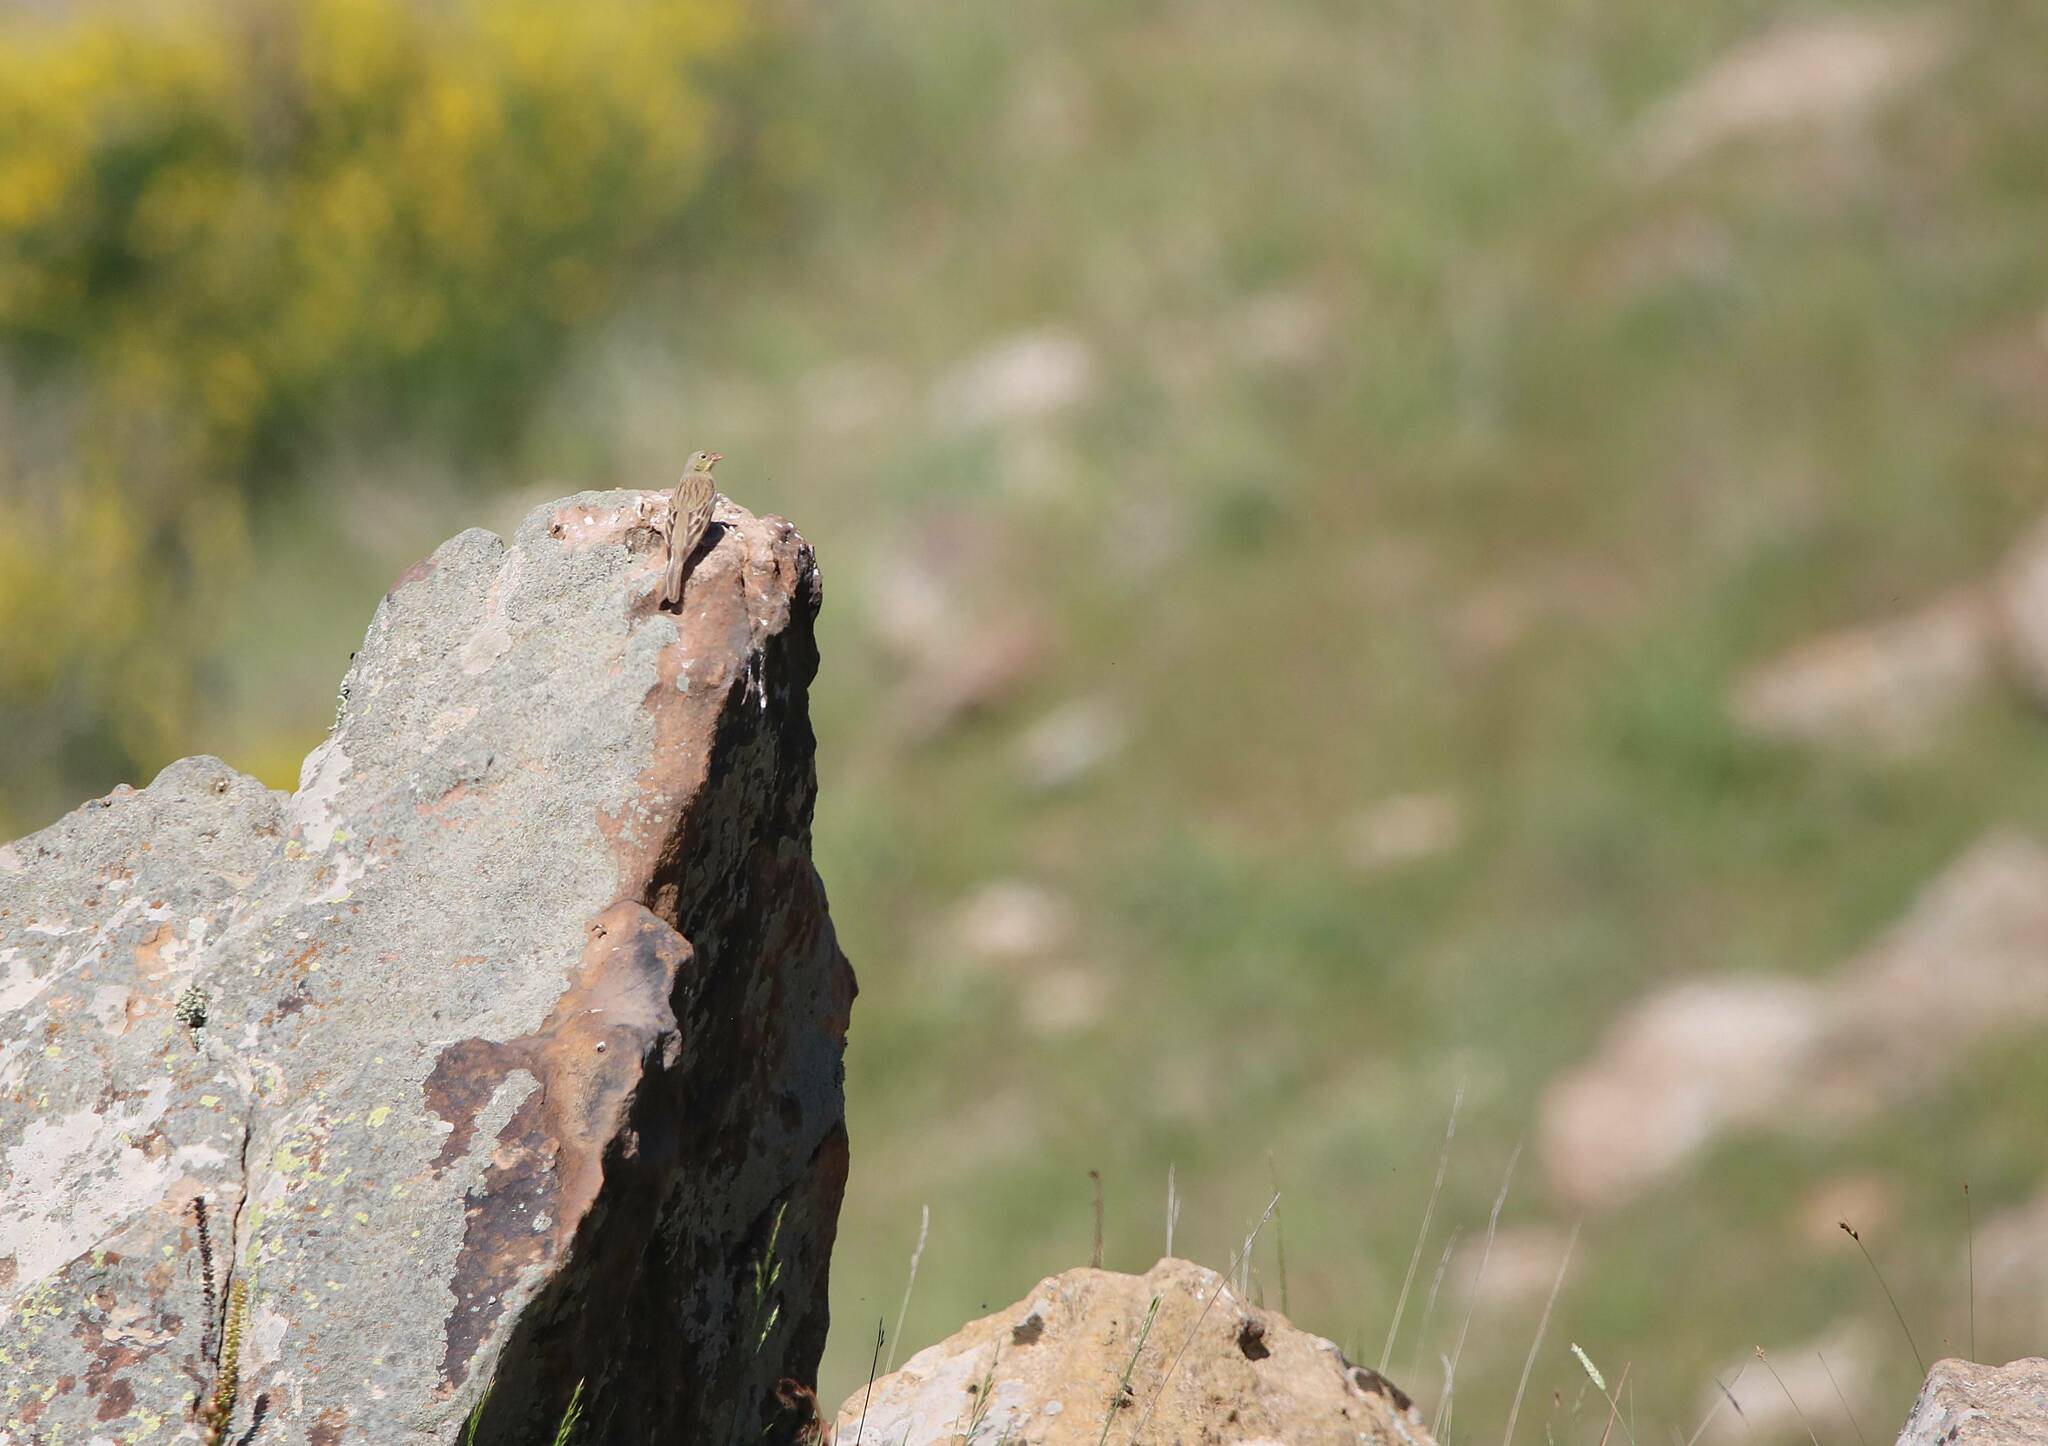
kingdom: Animalia
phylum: Chordata
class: Aves
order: Passeriformes
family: Emberizidae
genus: Emberiza
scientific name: Emberiza hortulana
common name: Ortolan bunting
